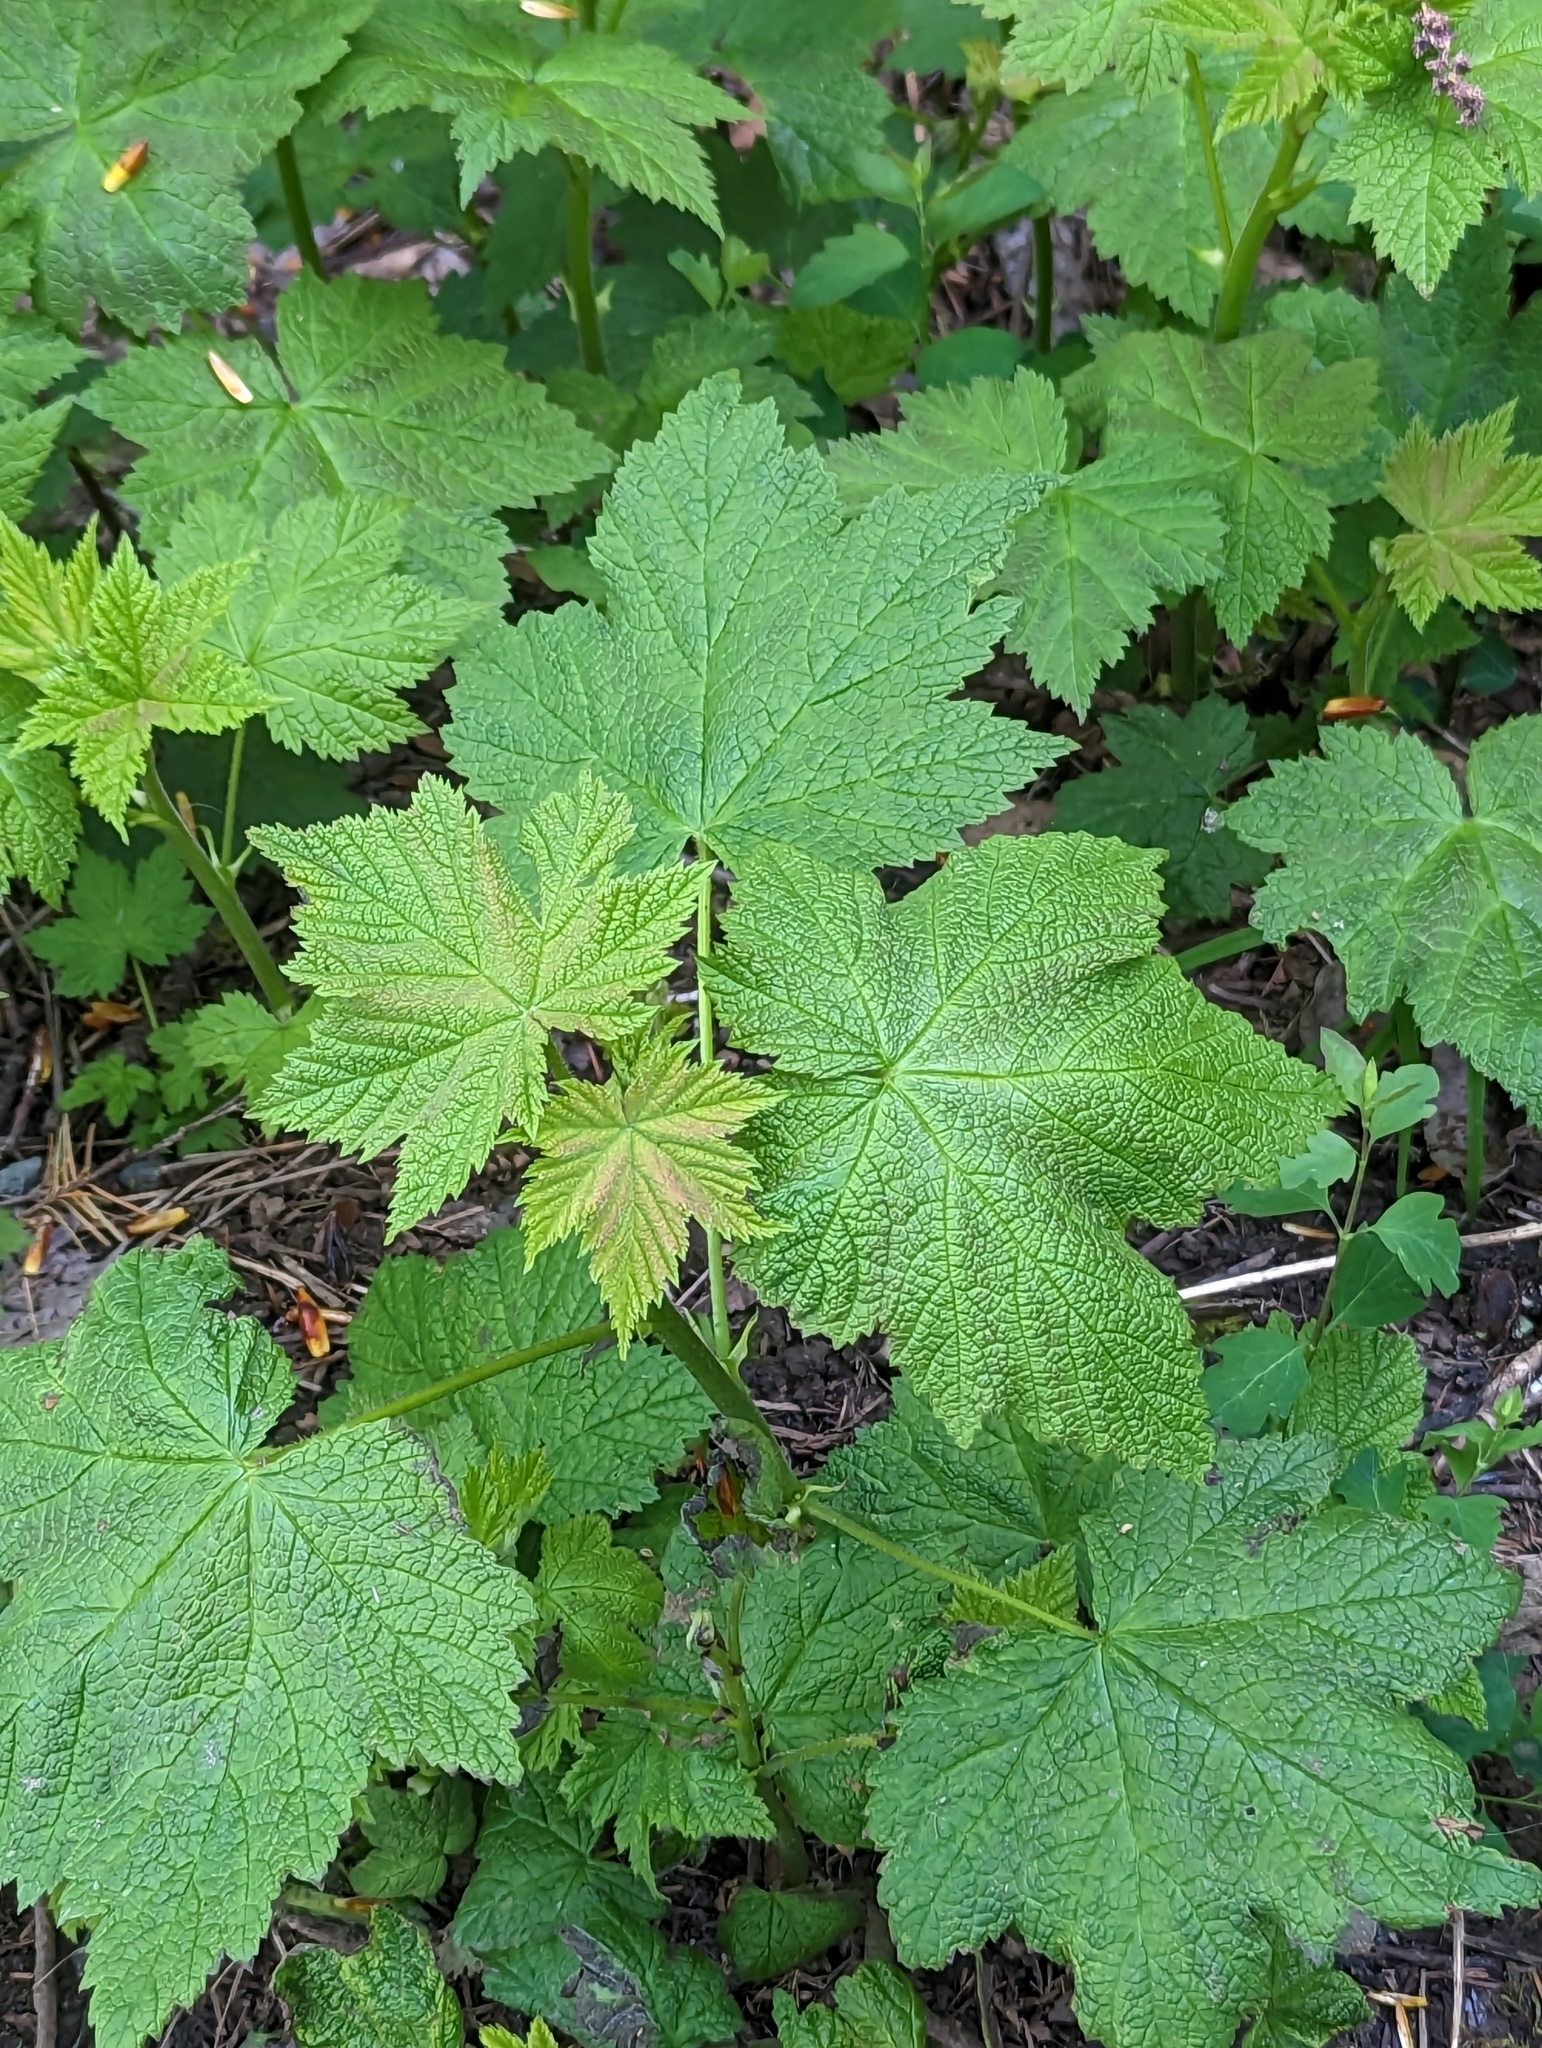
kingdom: Plantae
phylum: Tracheophyta
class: Magnoliopsida
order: Rosales
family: Rosaceae
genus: Rubus
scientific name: Rubus parviflorus
